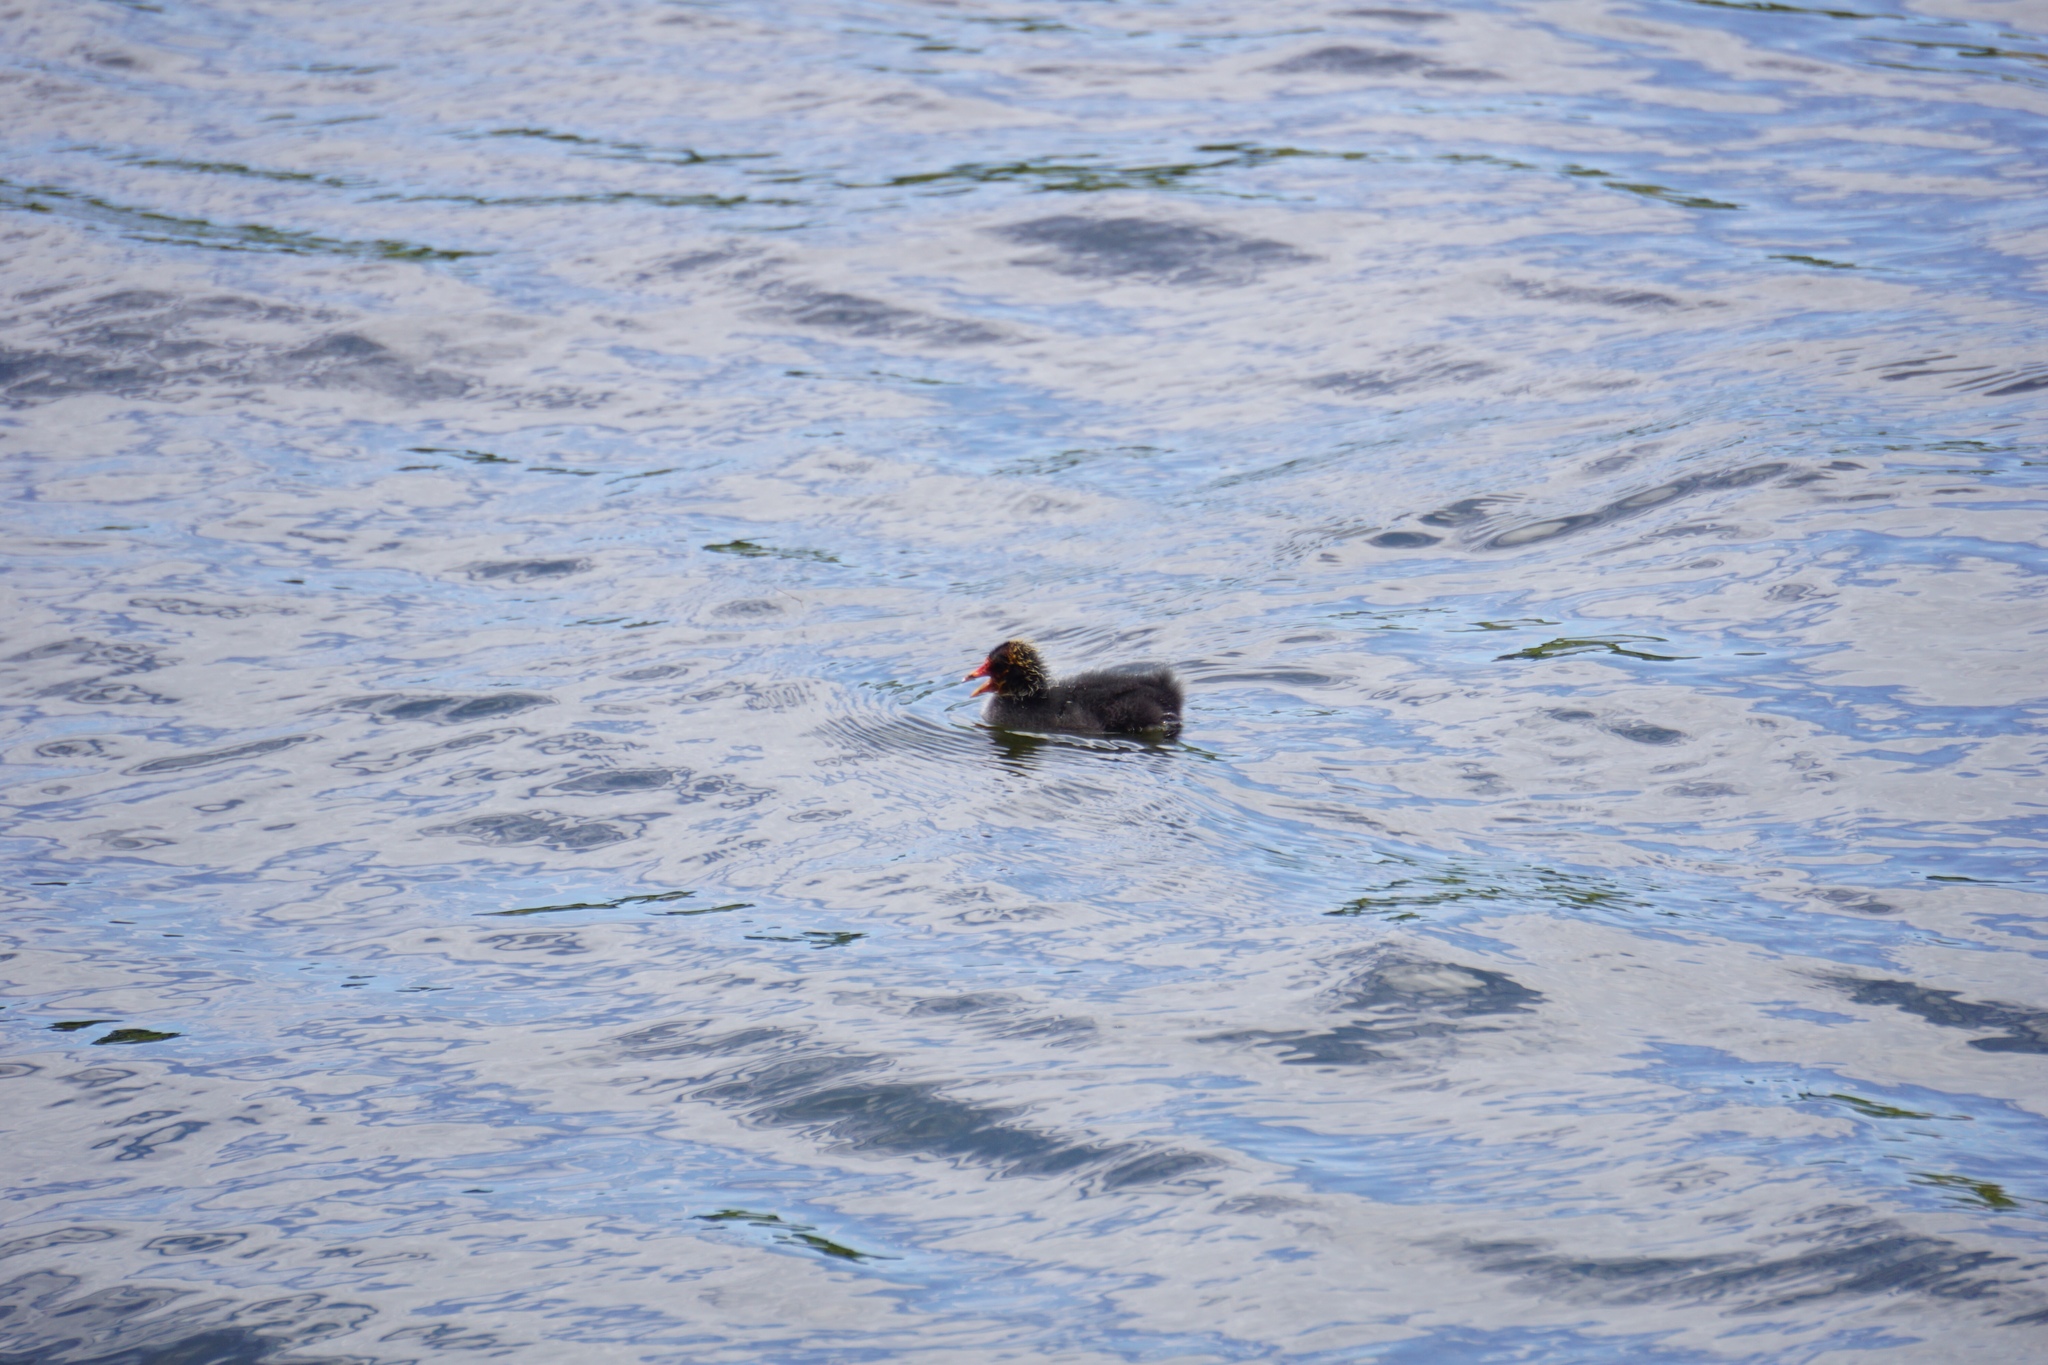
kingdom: Animalia
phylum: Chordata
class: Aves
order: Gruiformes
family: Rallidae
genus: Fulica
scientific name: Fulica atra
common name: Eurasian coot
